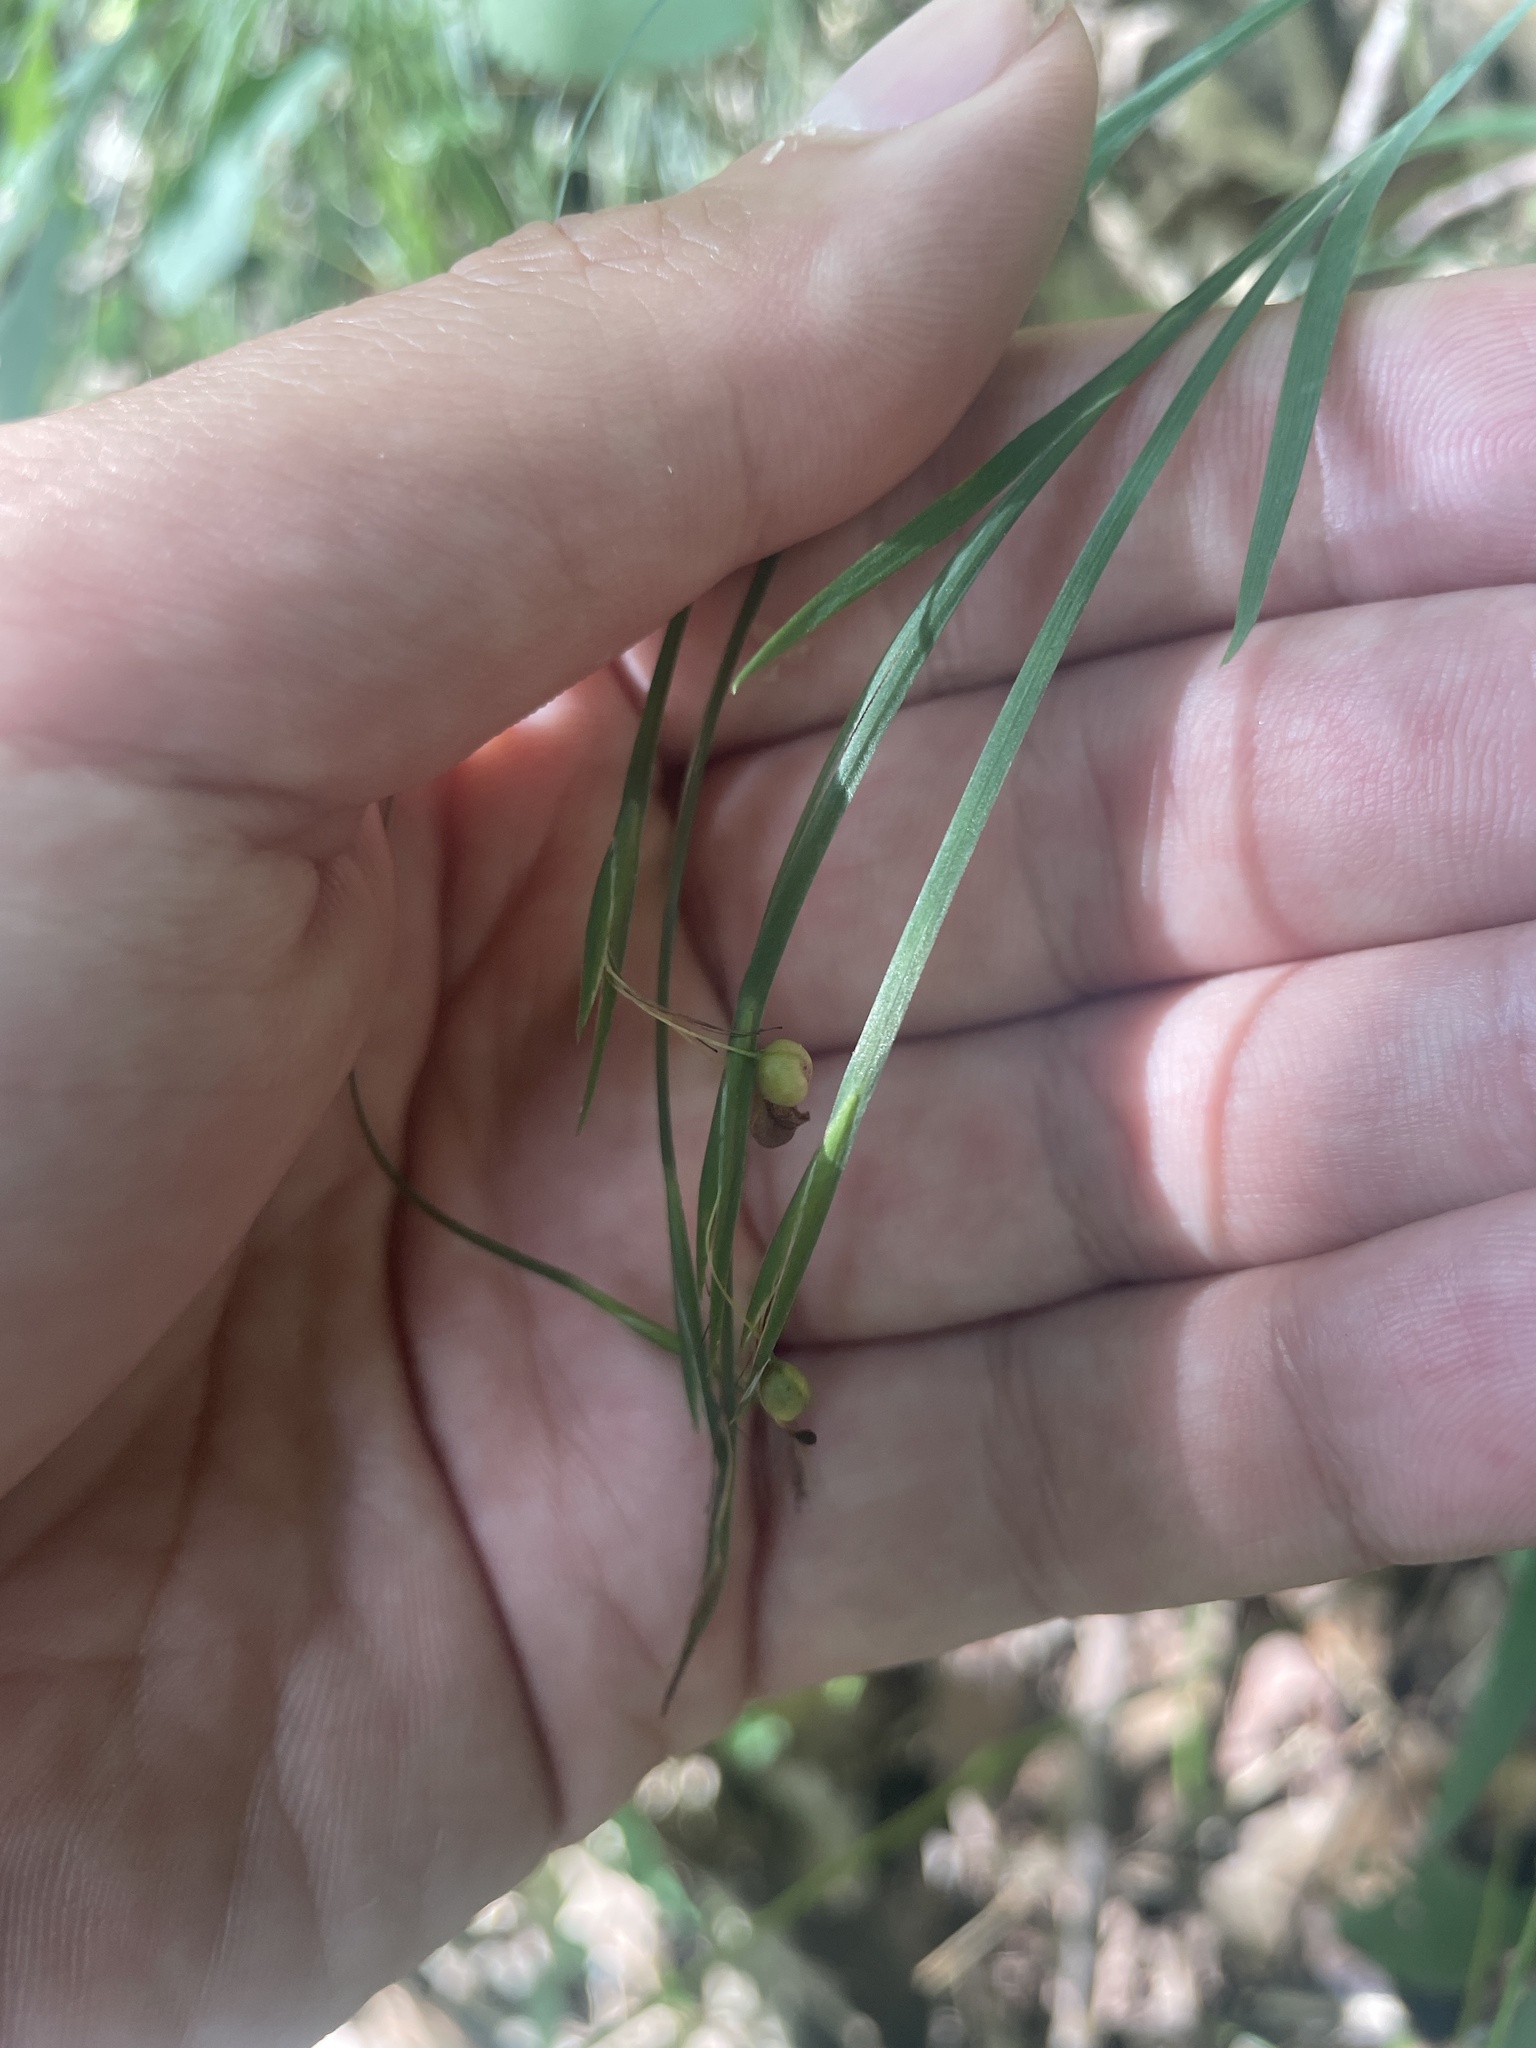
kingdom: Plantae
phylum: Tracheophyta
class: Liliopsida
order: Asparagales
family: Iridaceae
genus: Sisyrinchium
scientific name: Sisyrinchium dichotomum
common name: White irisette
